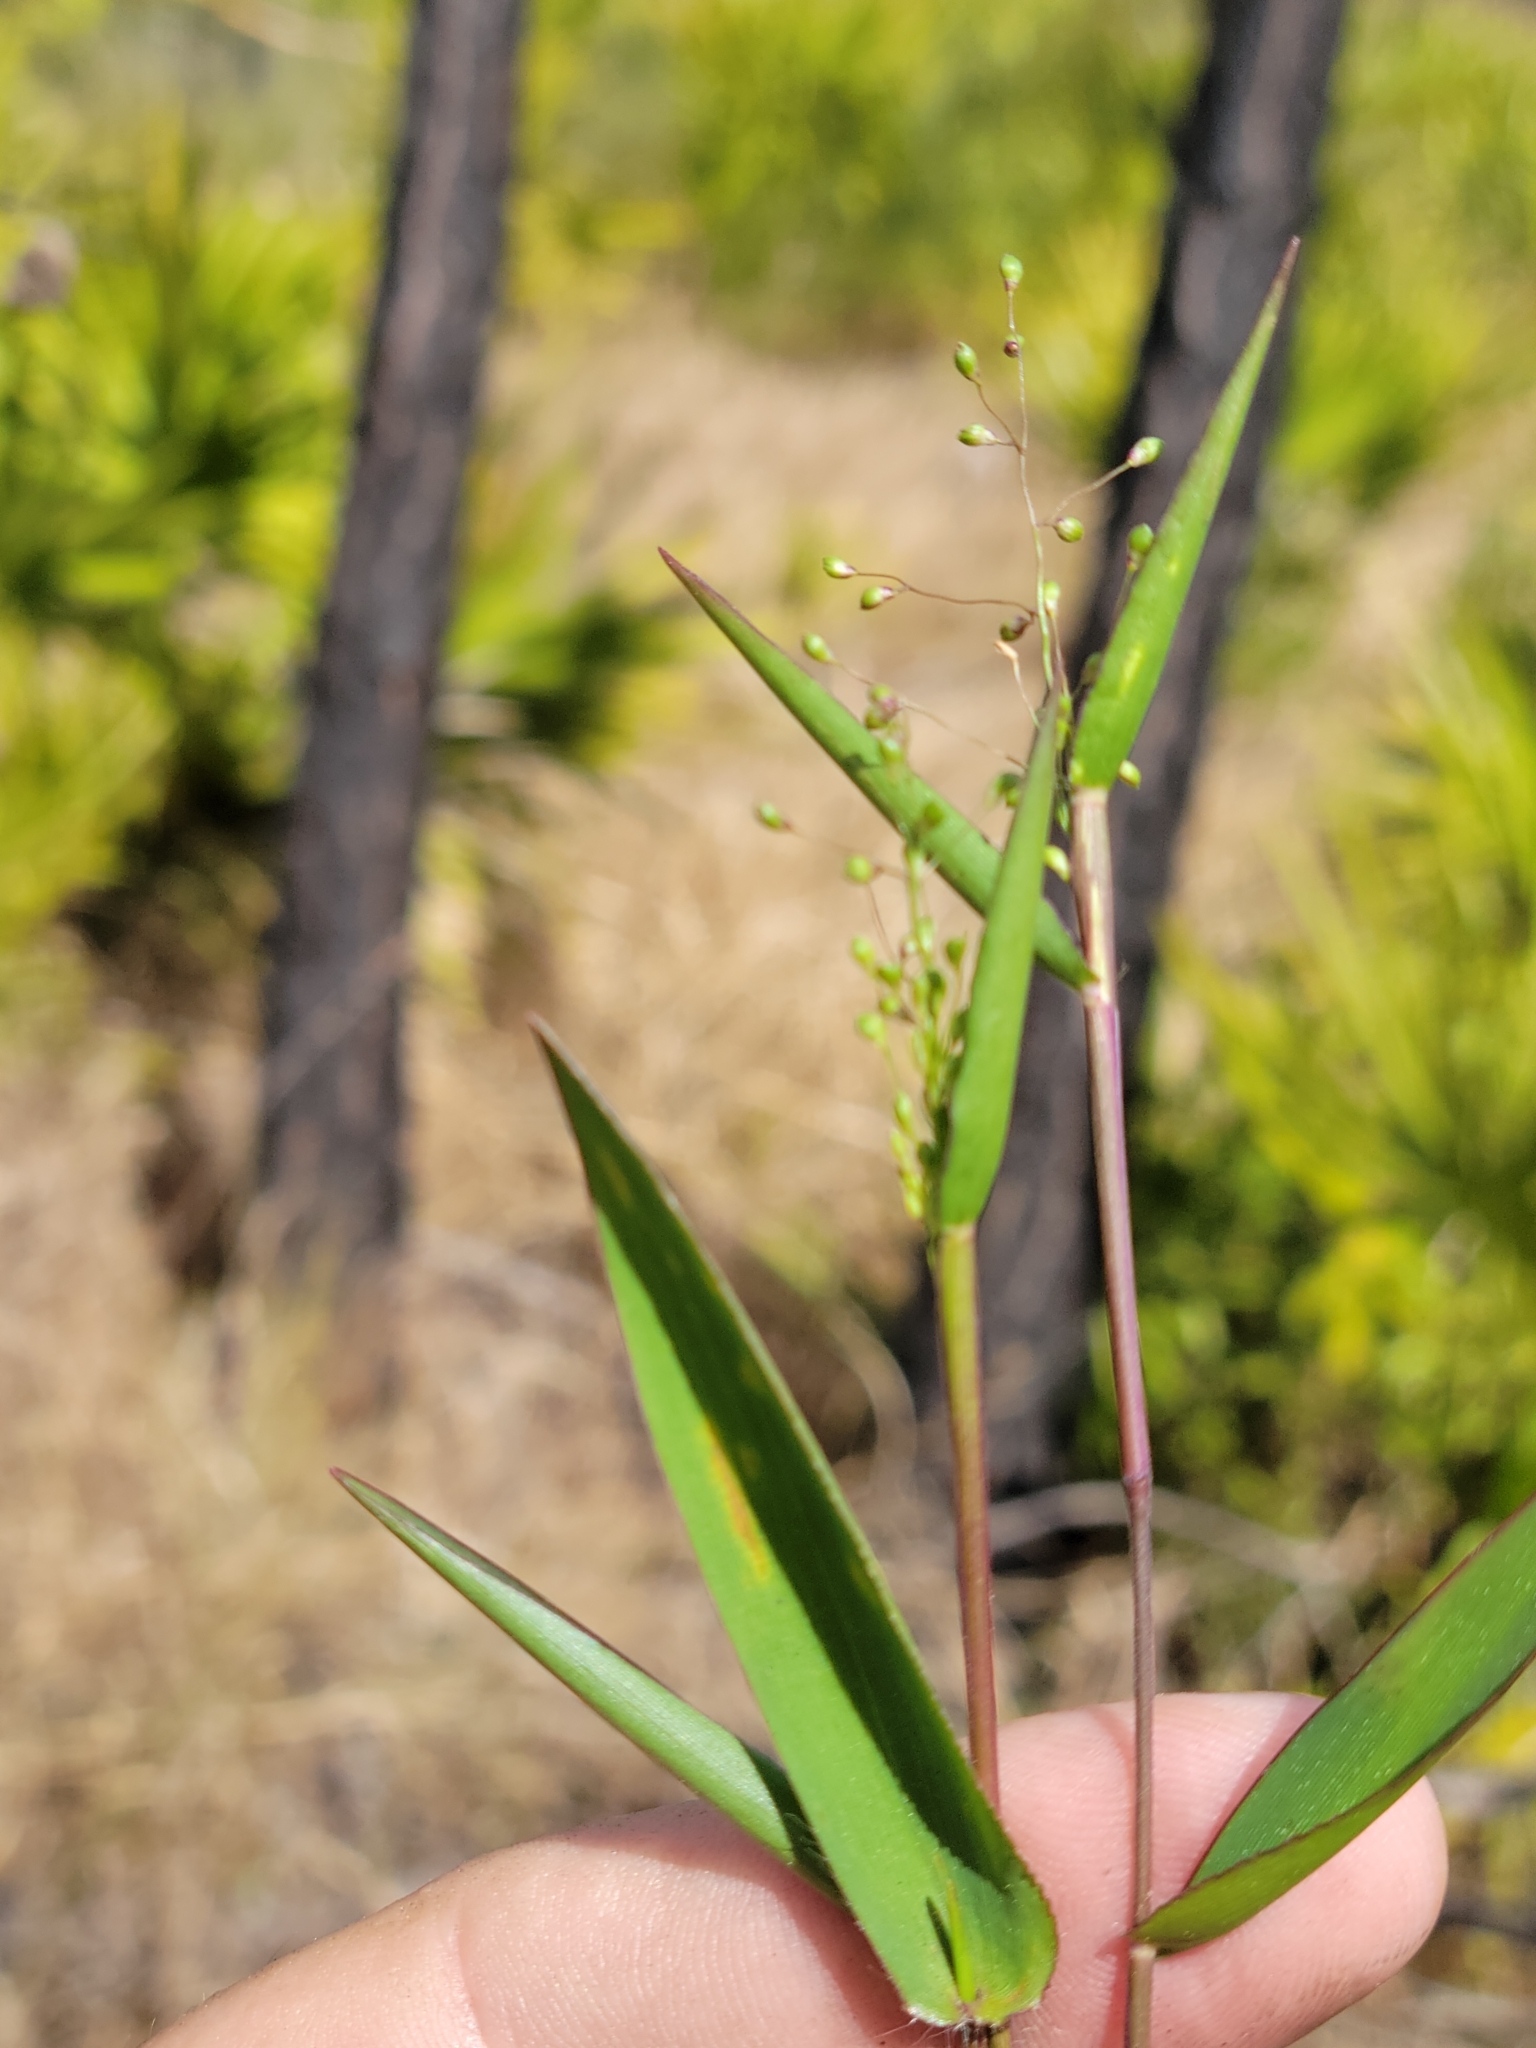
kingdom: Plantae
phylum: Tracheophyta
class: Liliopsida
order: Poales
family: Poaceae
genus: Dichanthelium
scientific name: Dichanthelium webberianum
